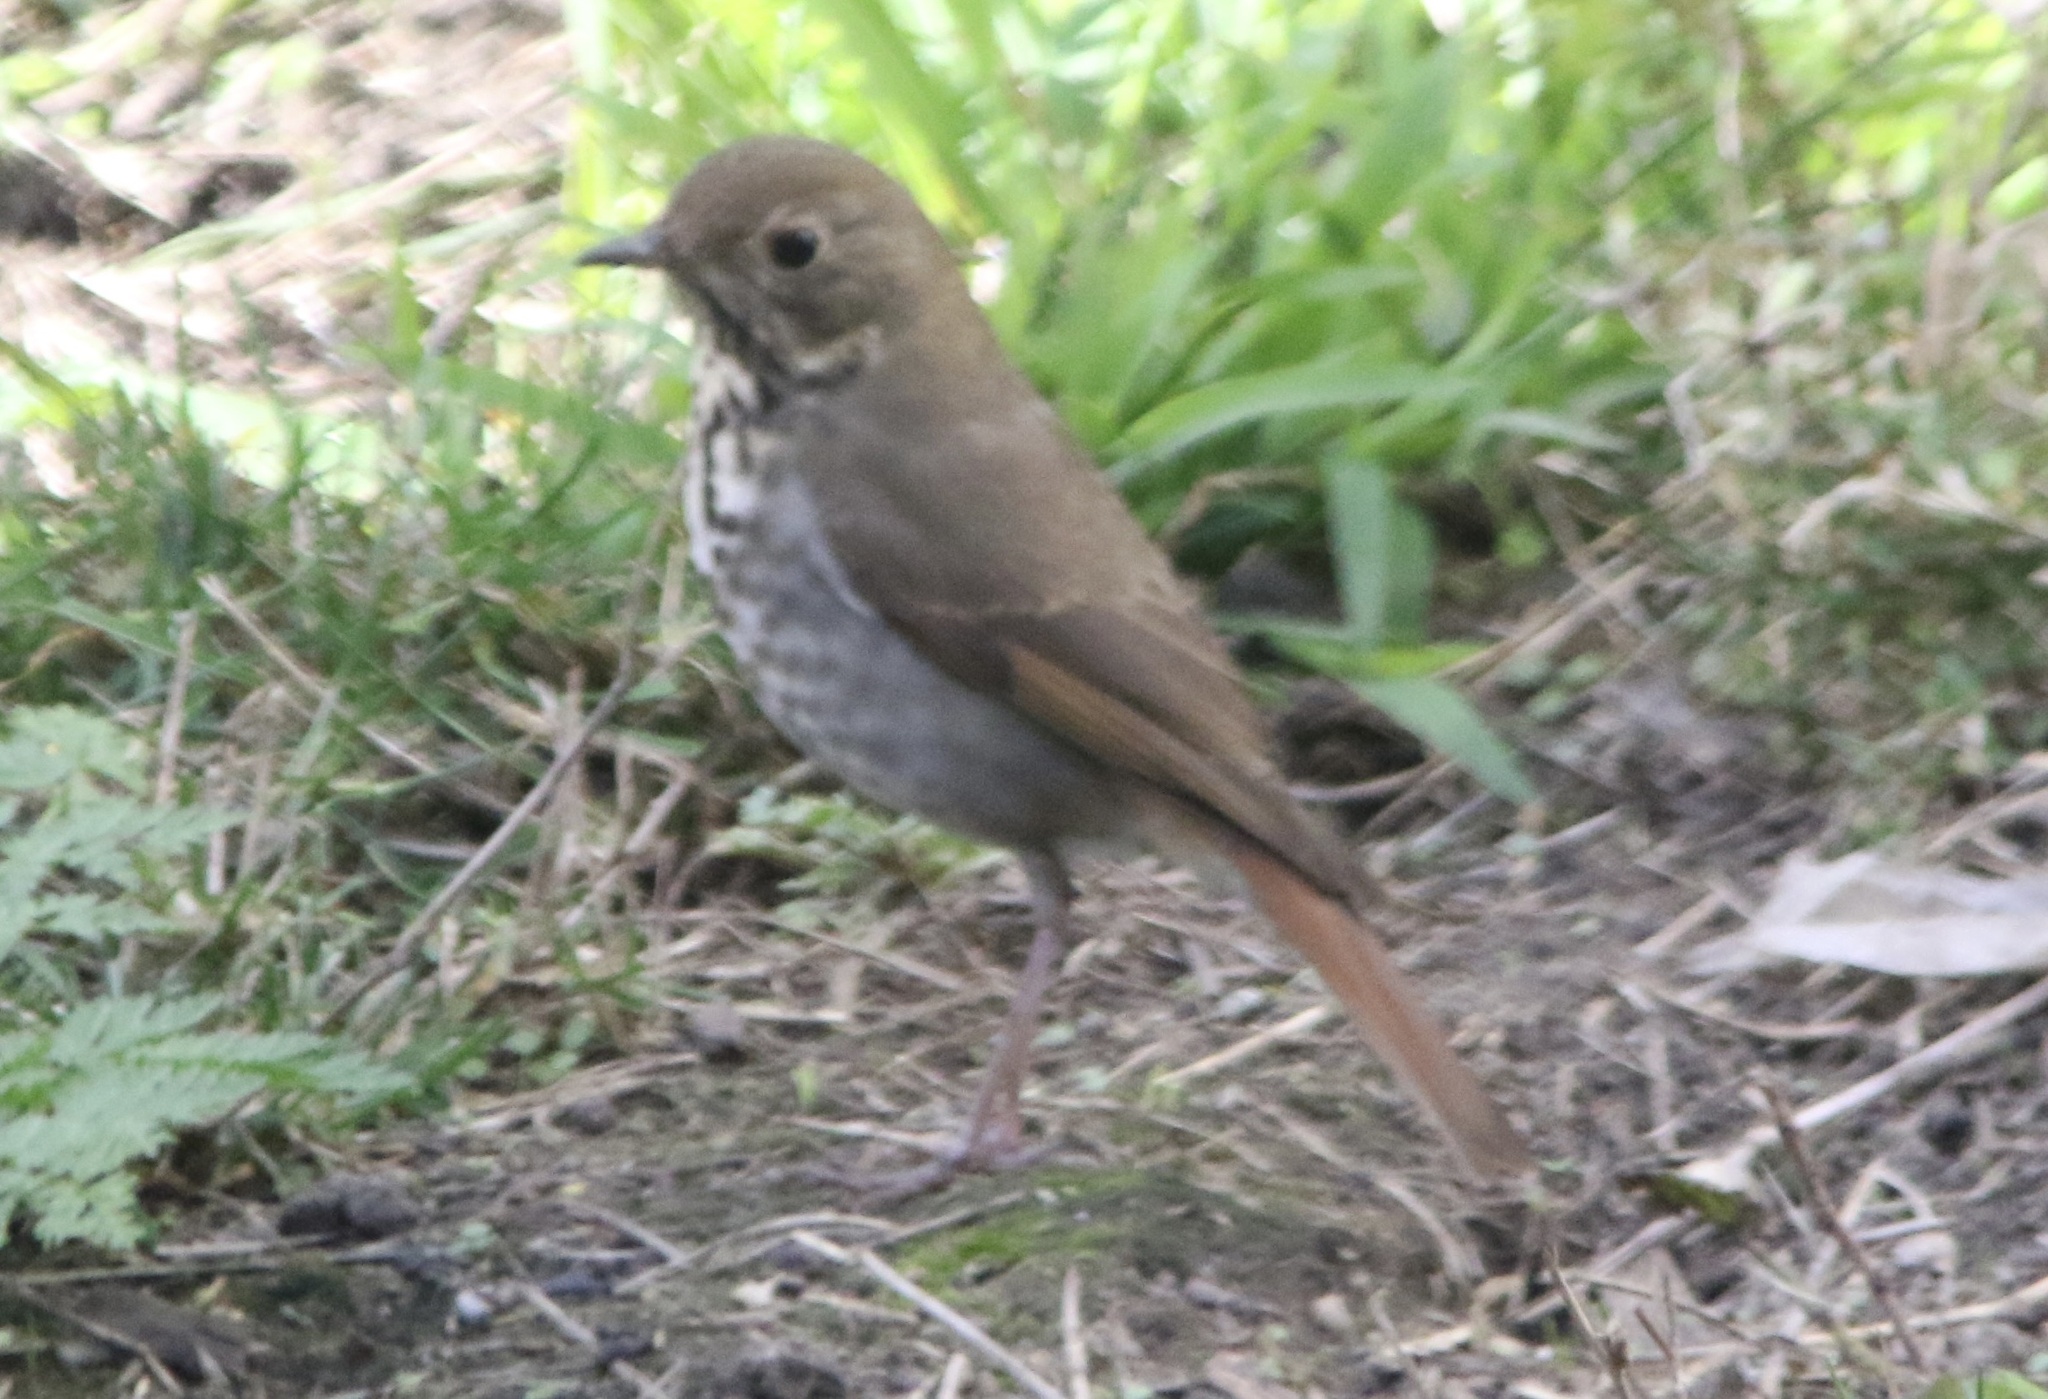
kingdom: Animalia
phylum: Chordata
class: Aves
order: Passeriformes
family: Turdidae
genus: Catharus
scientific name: Catharus guttatus
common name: Hermit thrush
